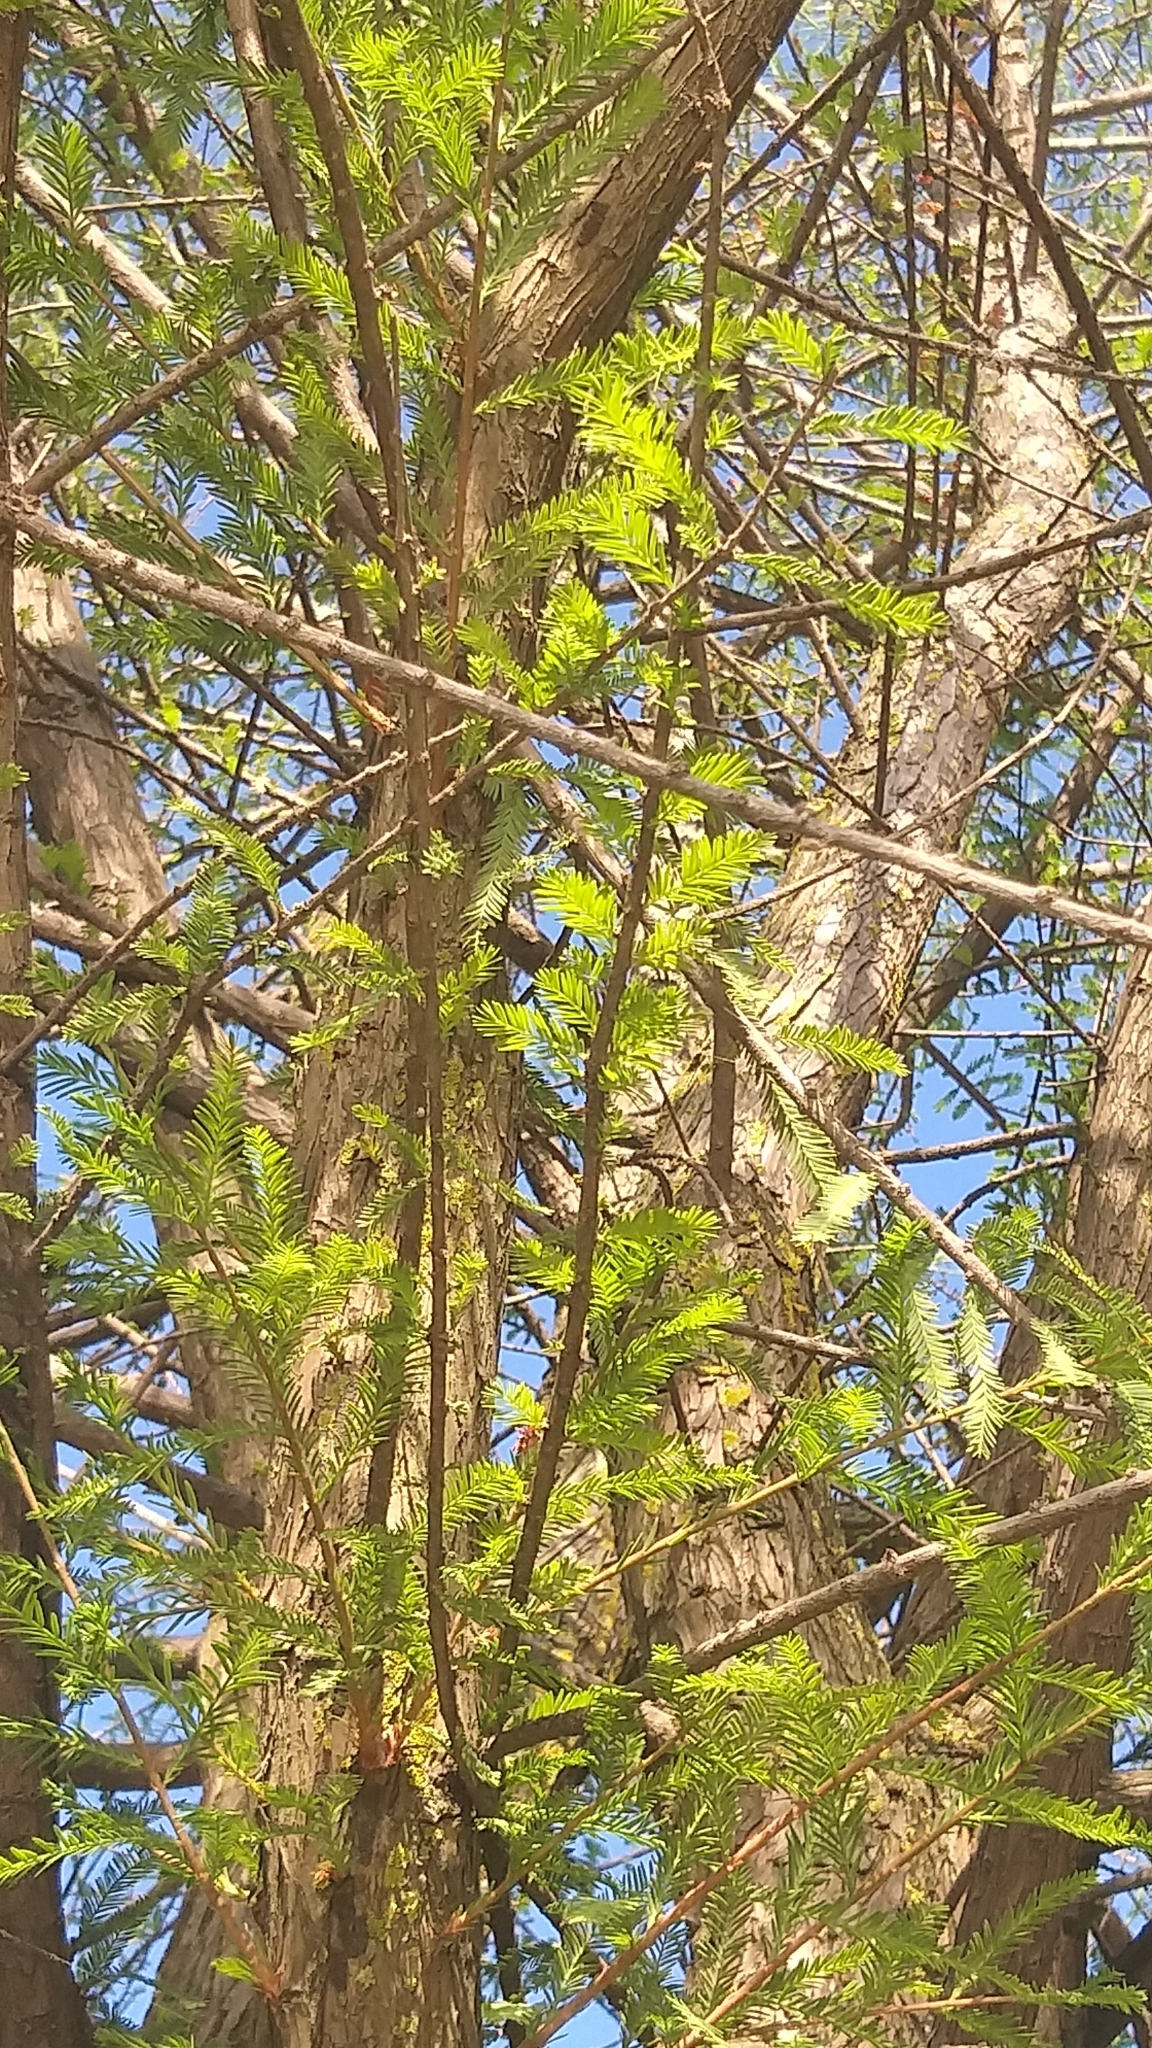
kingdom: Plantae
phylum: Tracheophyta
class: Pinopsida
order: Pinales
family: Cupressaceae
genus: Taxodium
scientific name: Taxodium mucronatum
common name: Montezume bald cypress
